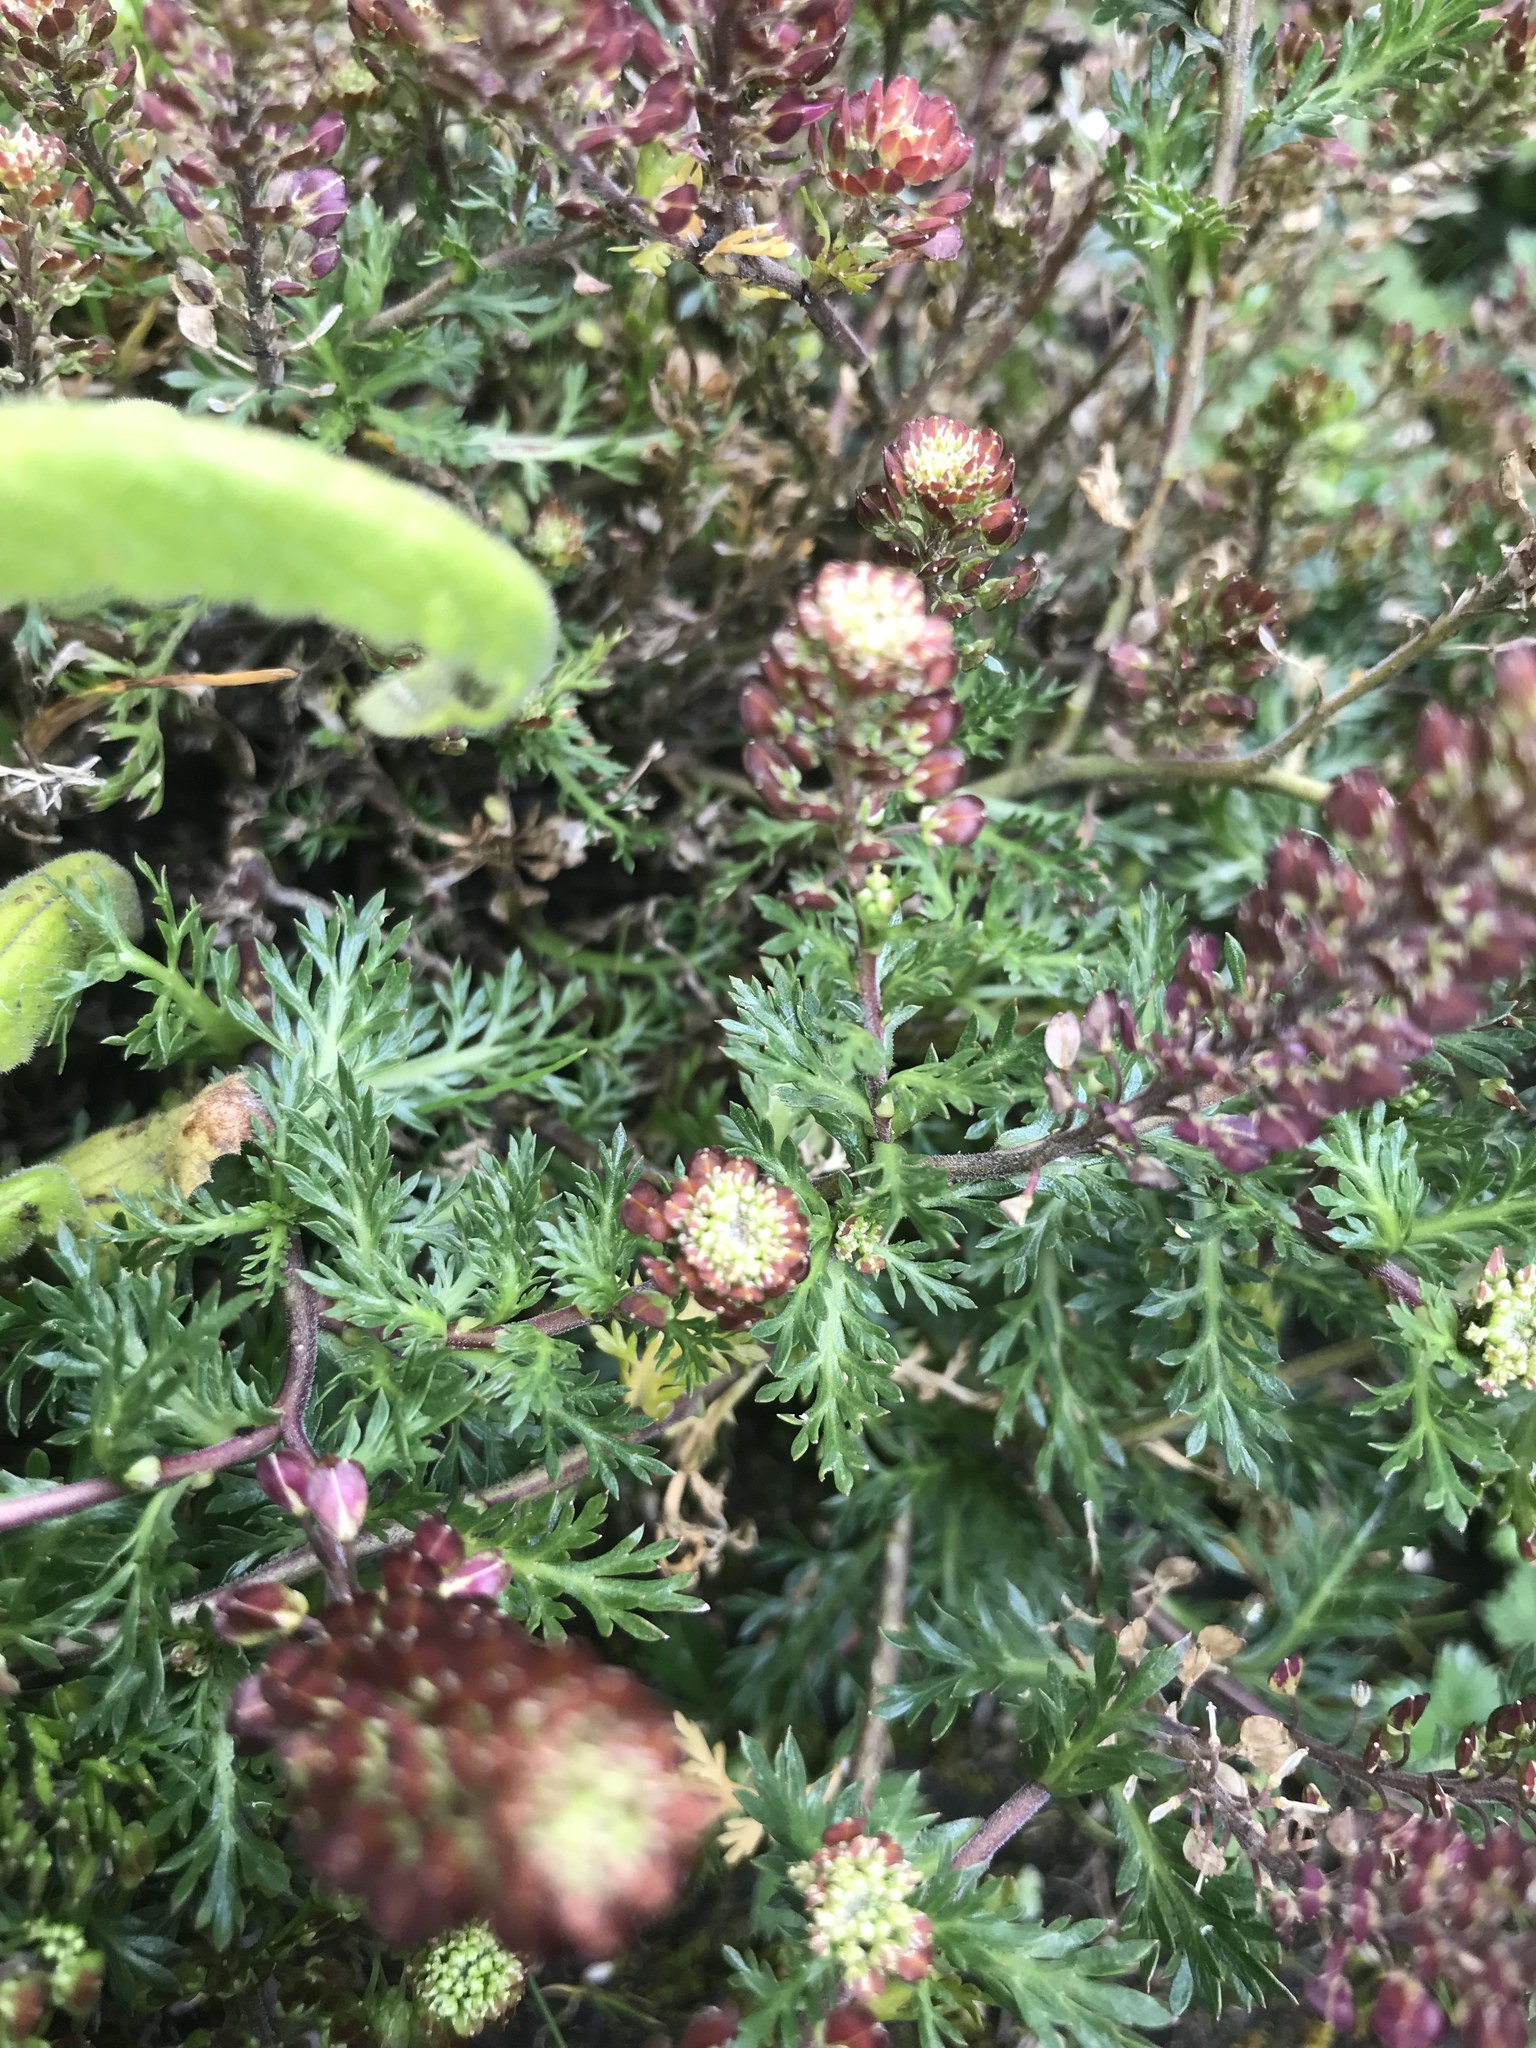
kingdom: Plantae
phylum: Tracheophyta
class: Magnoliopsida
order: Brassicales
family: Brassicaceae
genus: Lepidium
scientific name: Lepidium bipinnatifidum
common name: Wayside pepperwort
